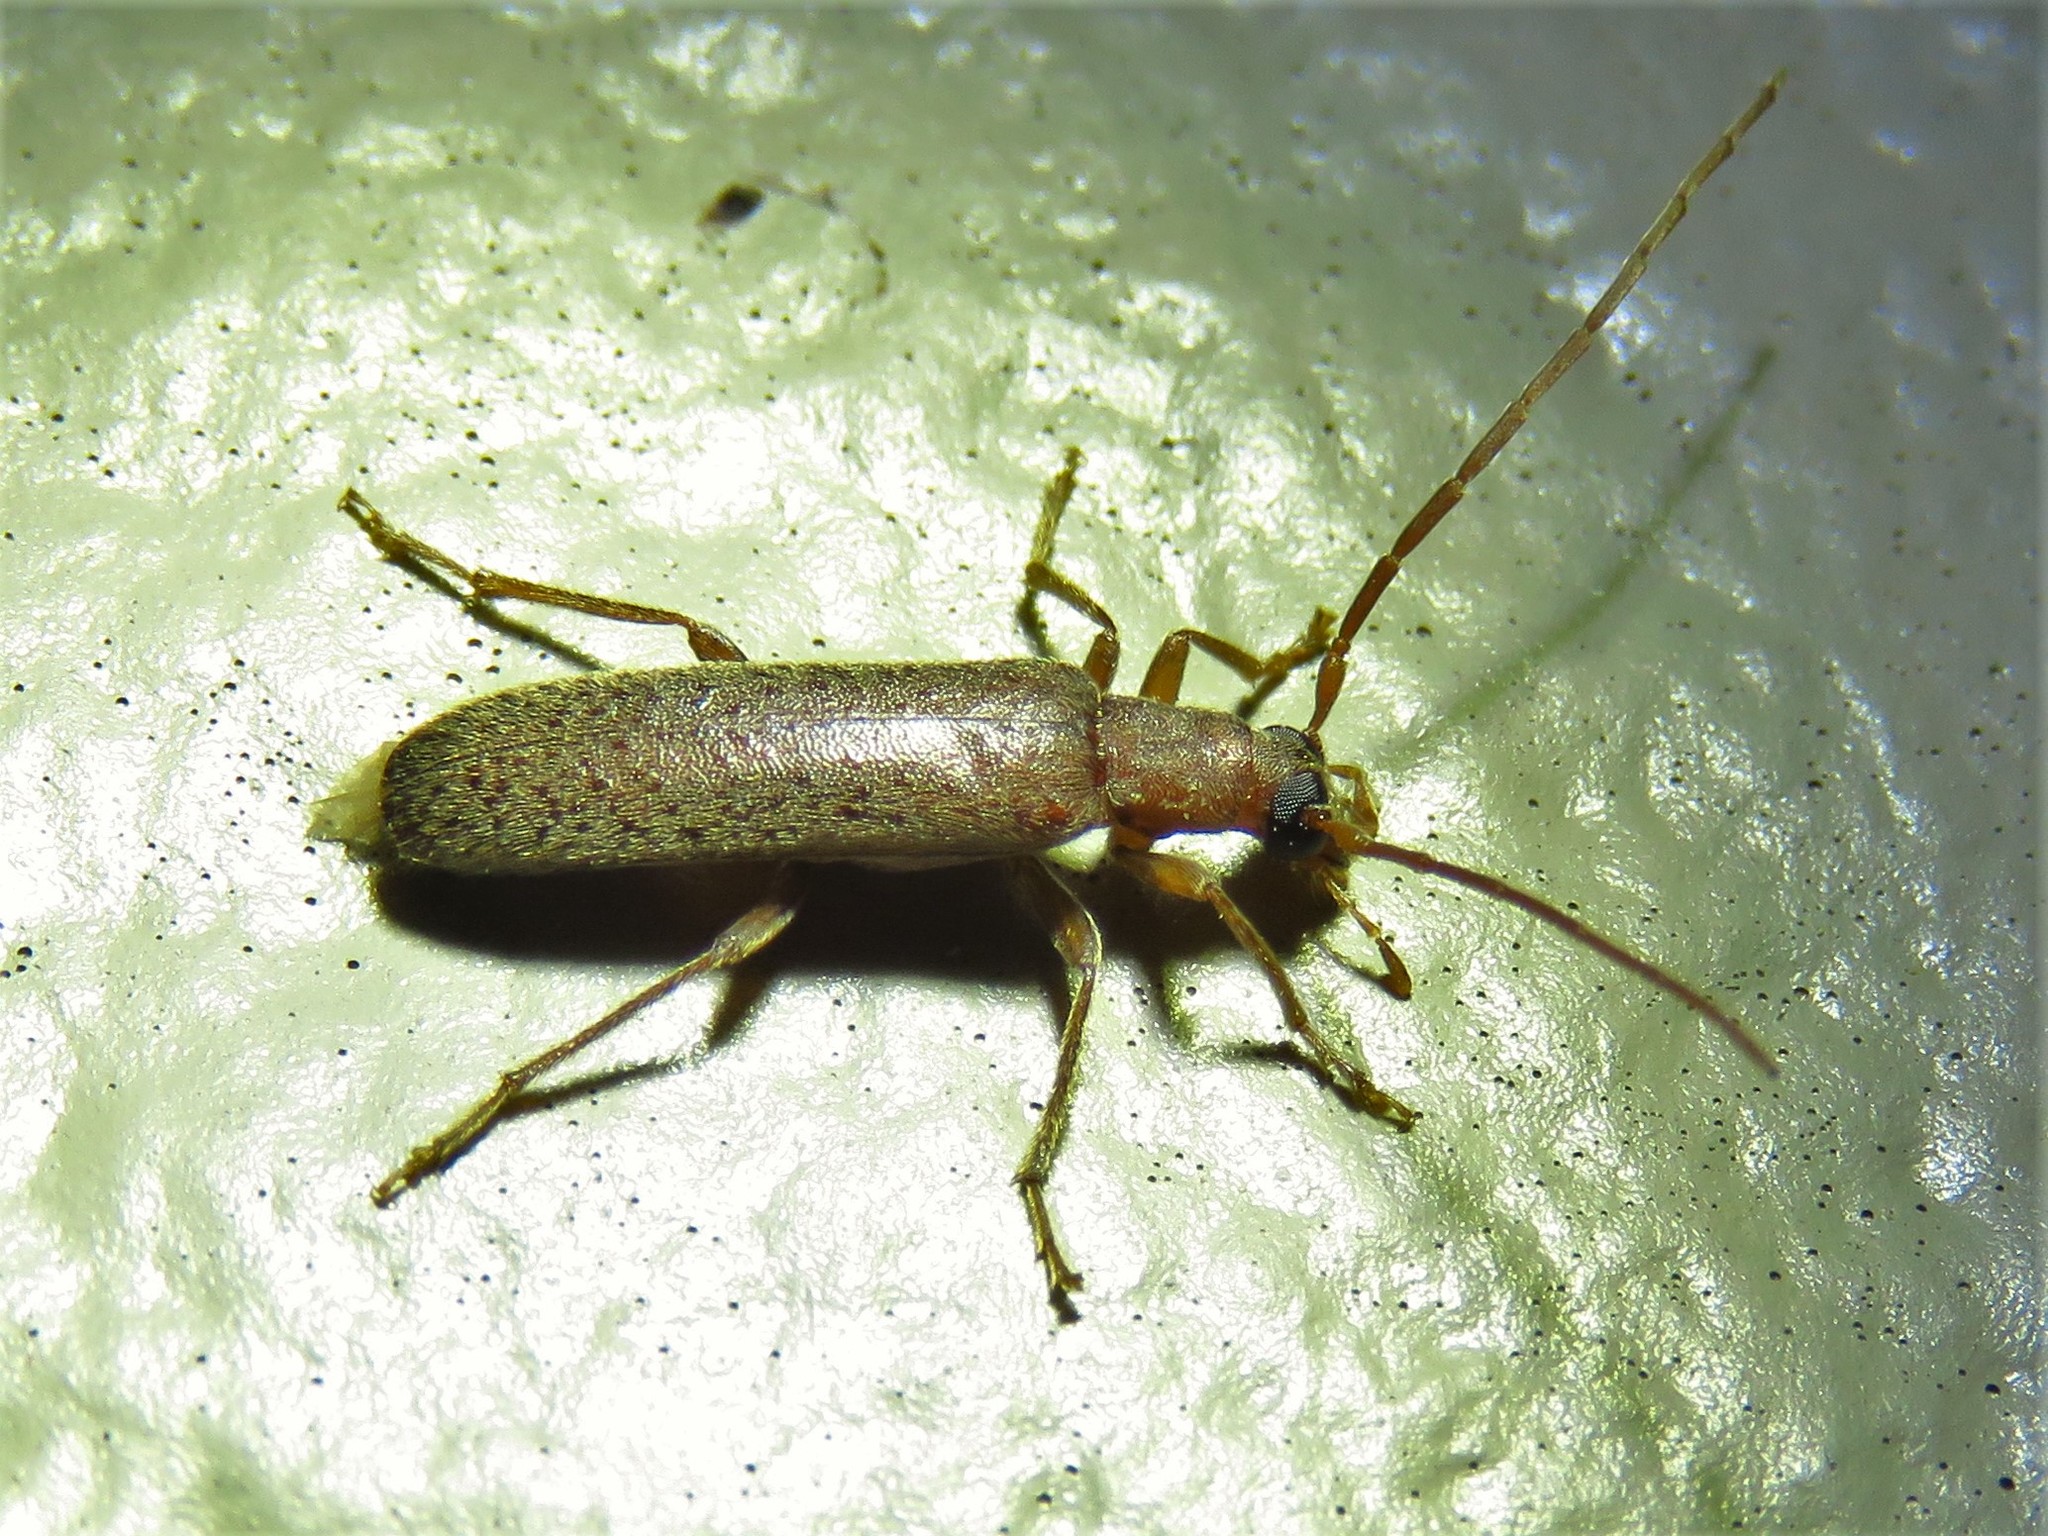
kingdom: Animalia
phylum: Arthropoda
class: Insecta
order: Coleoptera
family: Oedemeridae
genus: Sparedrus
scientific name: Sparedrus aspersus
